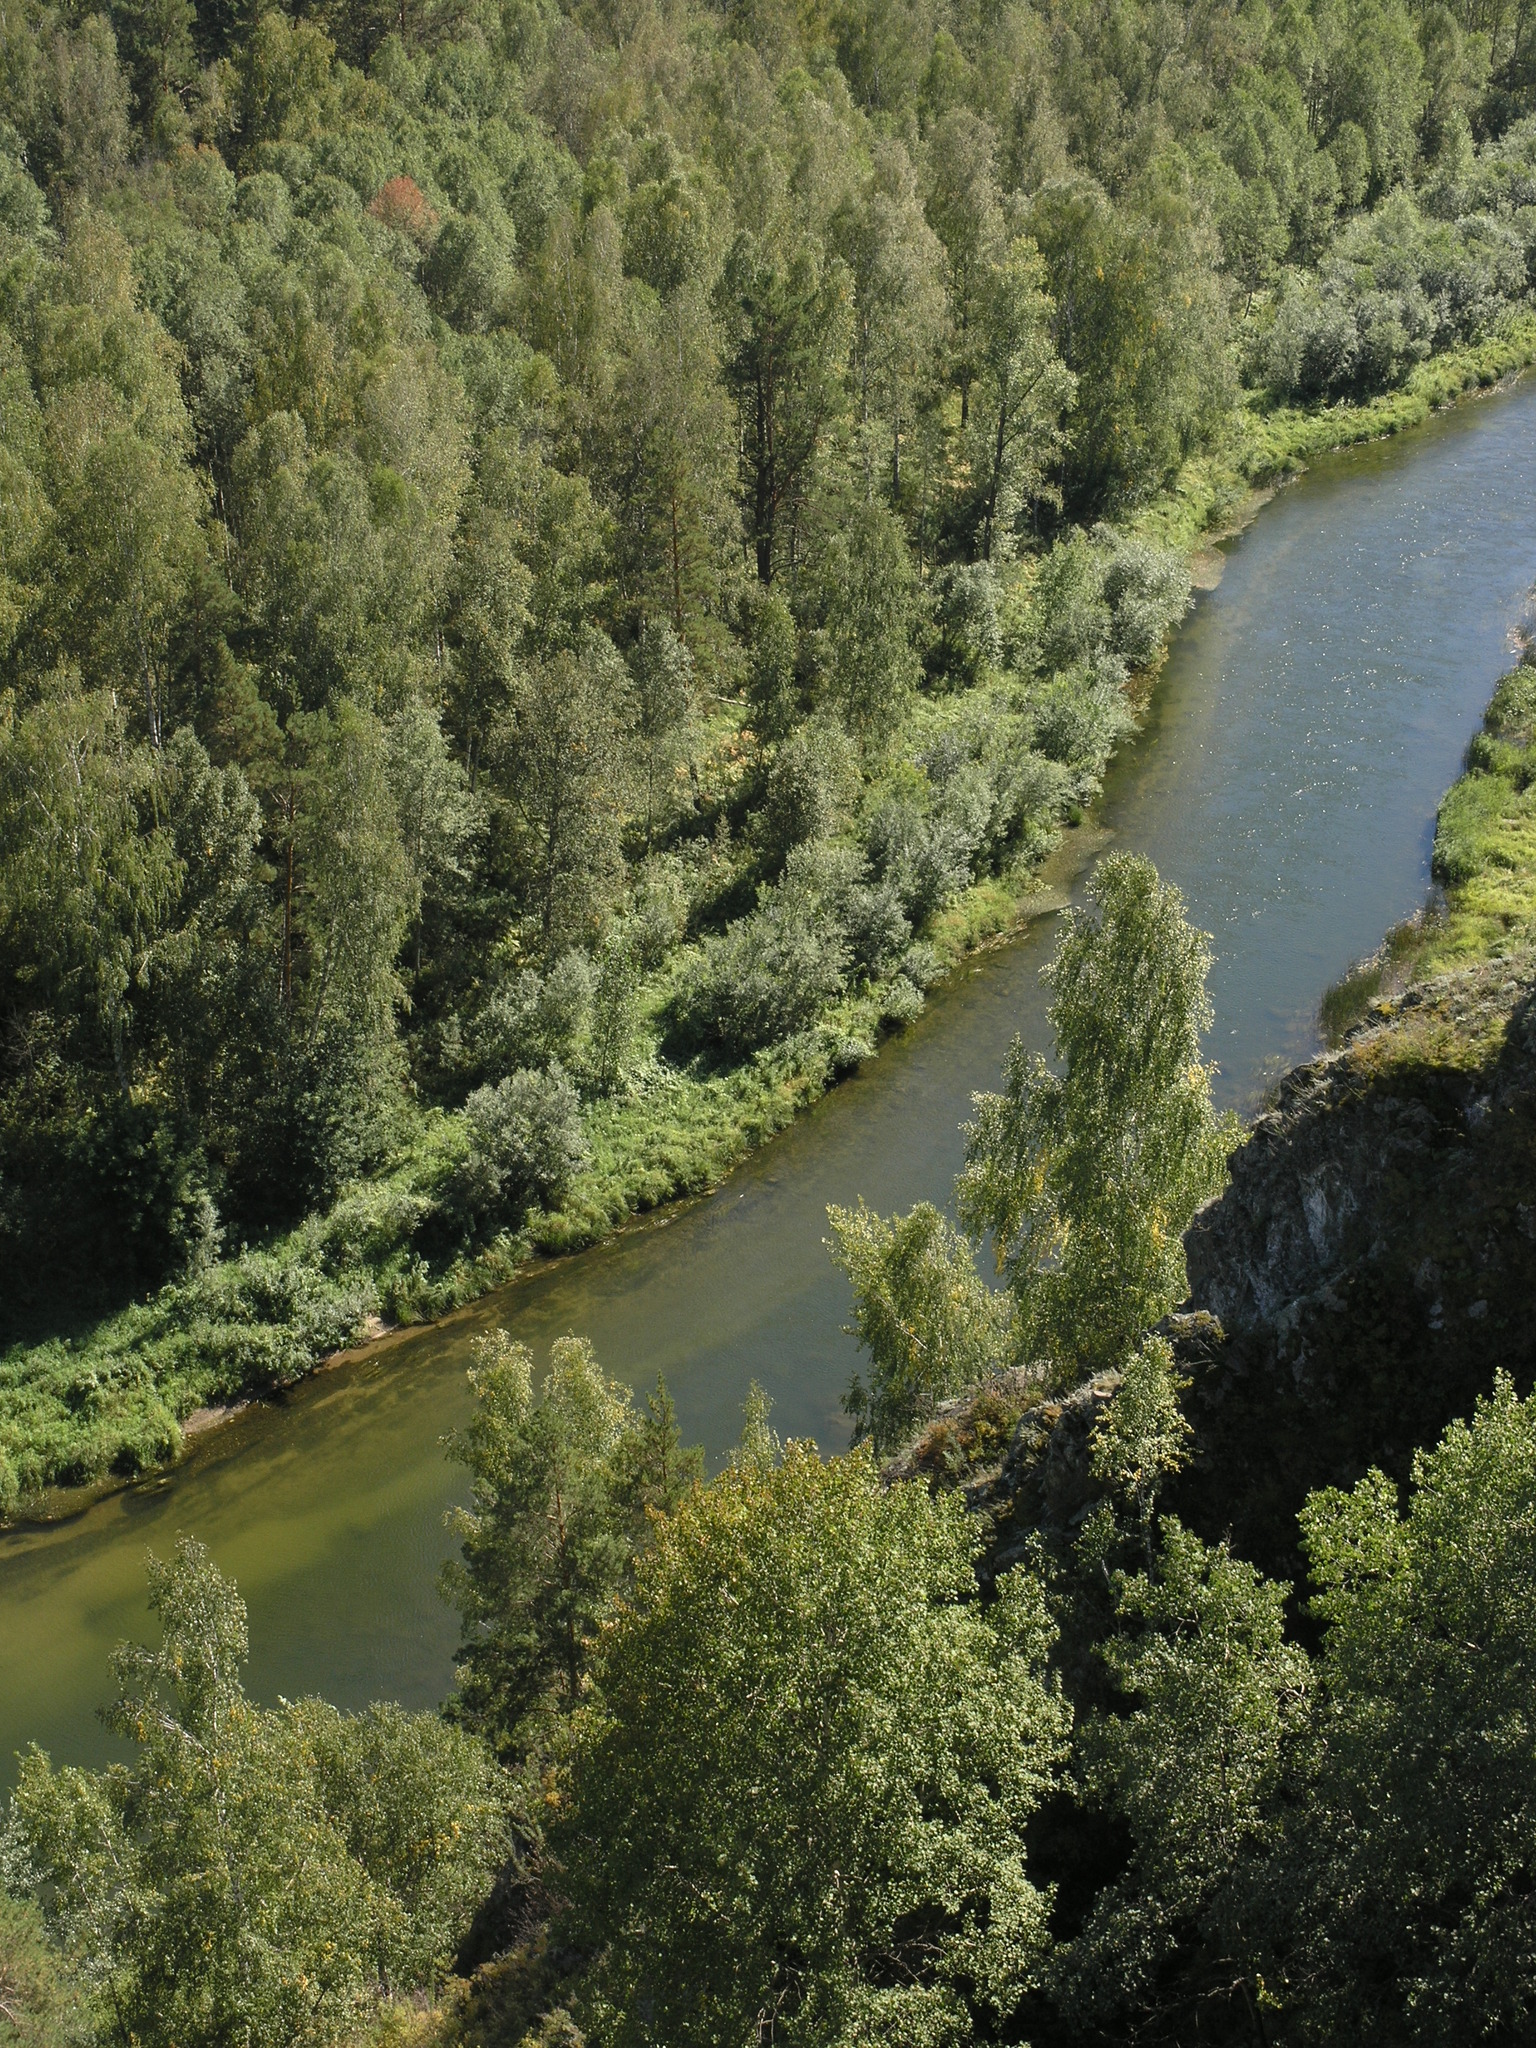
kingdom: Plantae
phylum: Tracheophyta
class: Magnoliopsida
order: Fagales
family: Betulaceae
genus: Betula
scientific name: Betula pendula
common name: Silver birch
